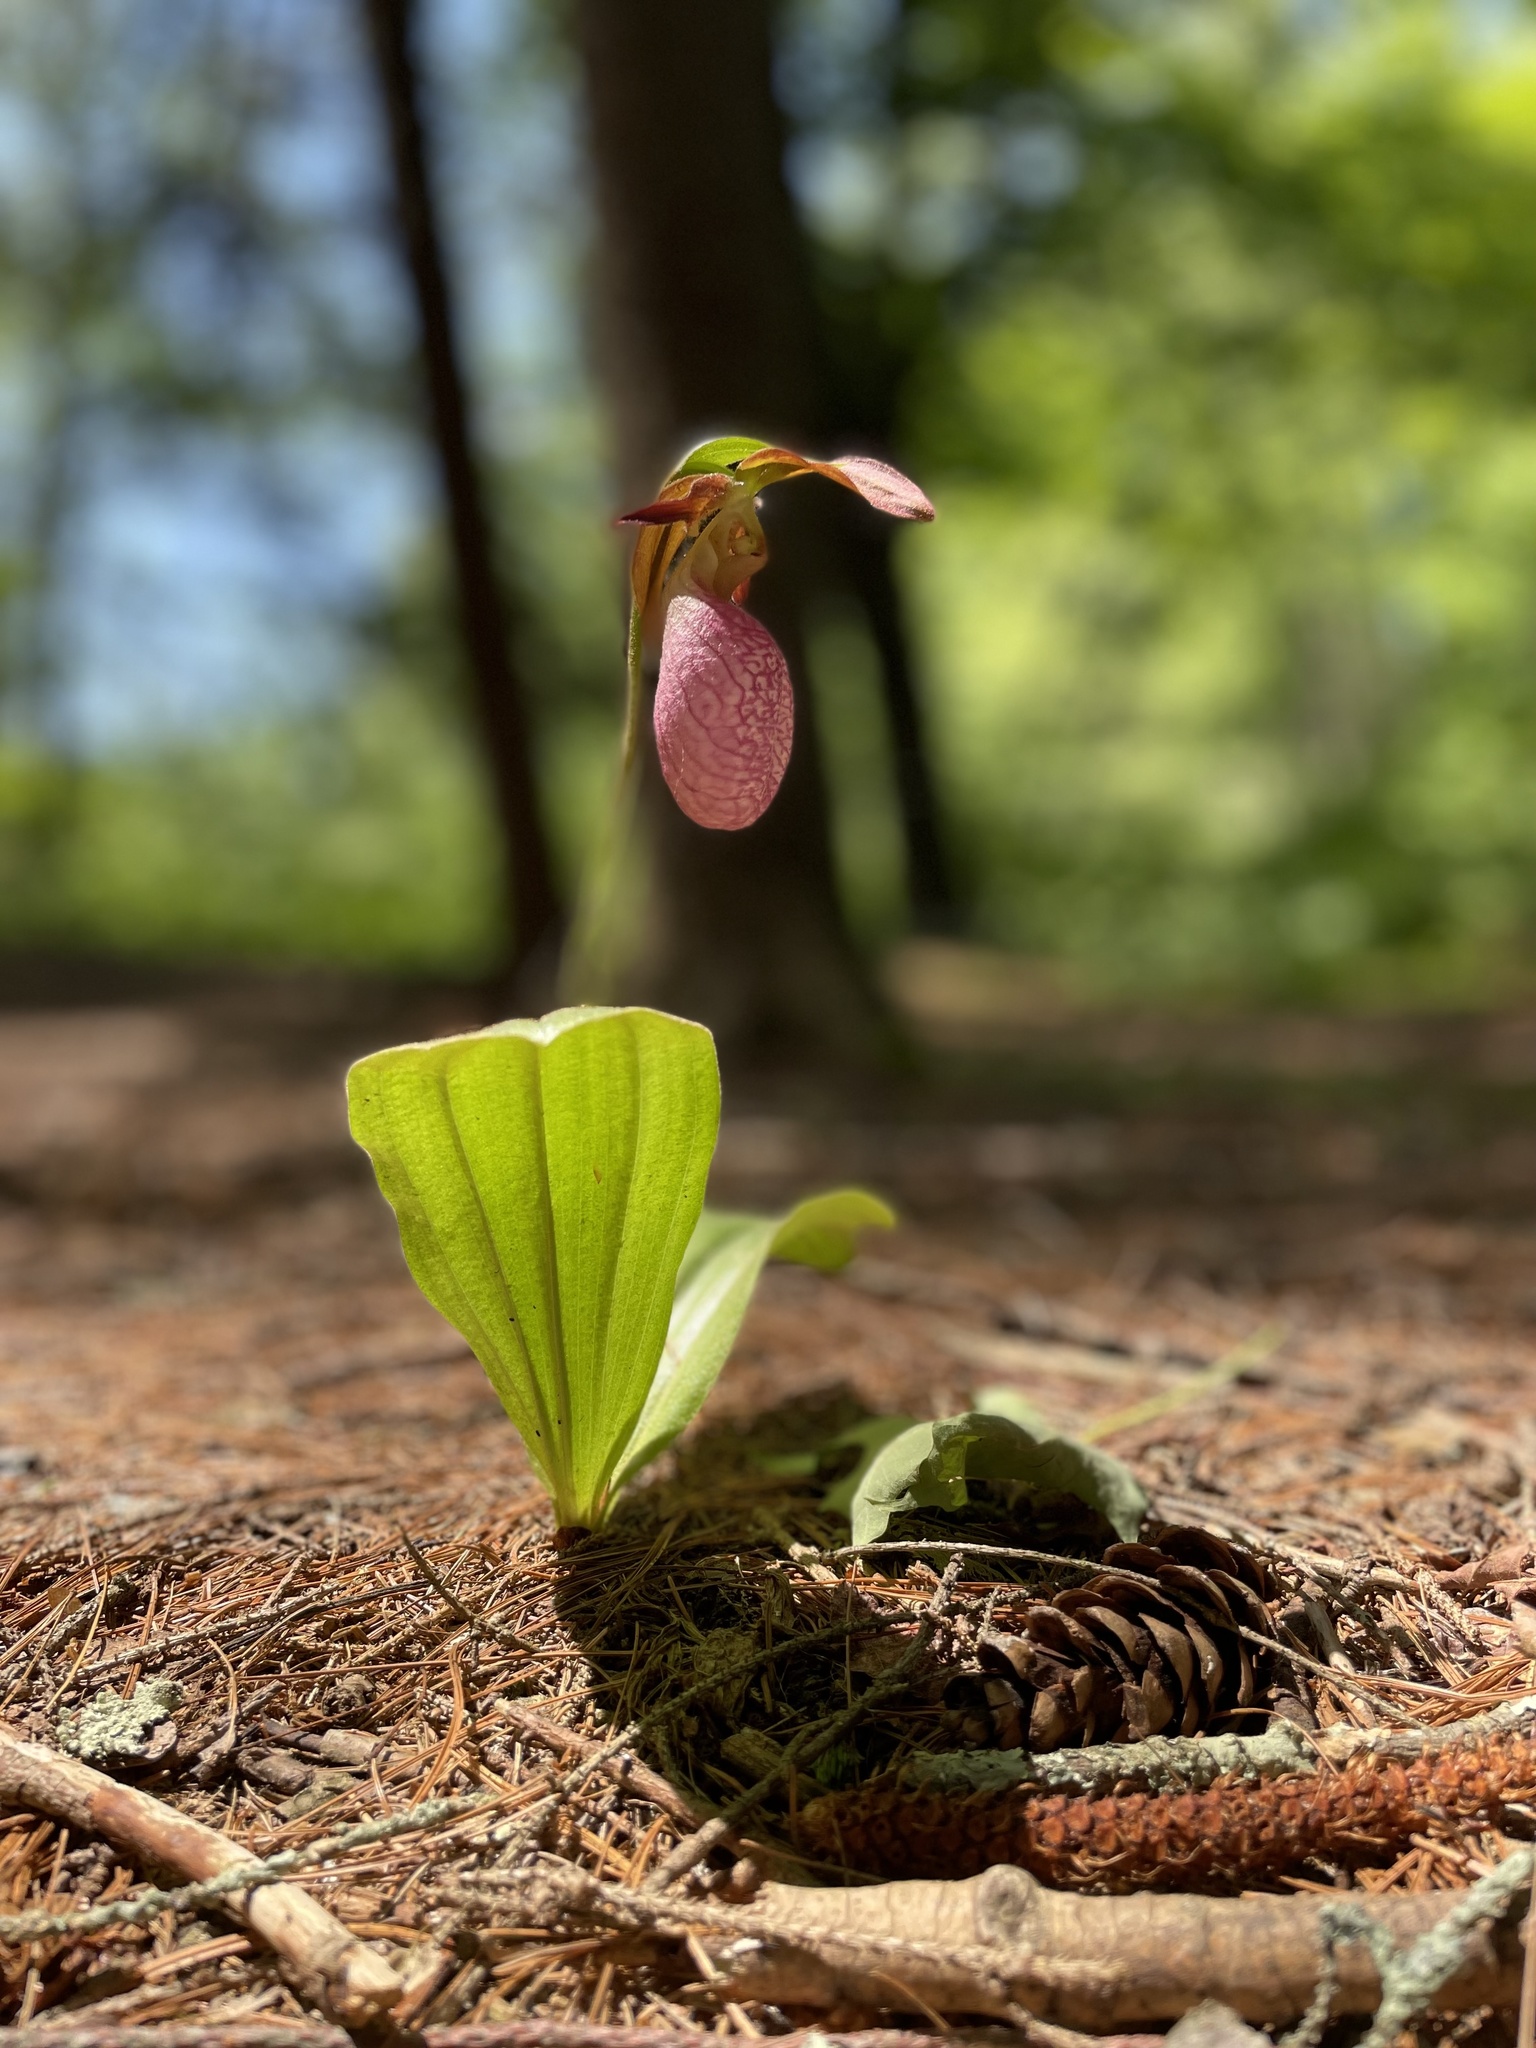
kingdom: Plantae
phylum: Tracheophyta
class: Liliopsida
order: Asparagales
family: Orchidaceae
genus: Cypripedium
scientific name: Cypripedium acaule
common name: Pink lady's-slipper
